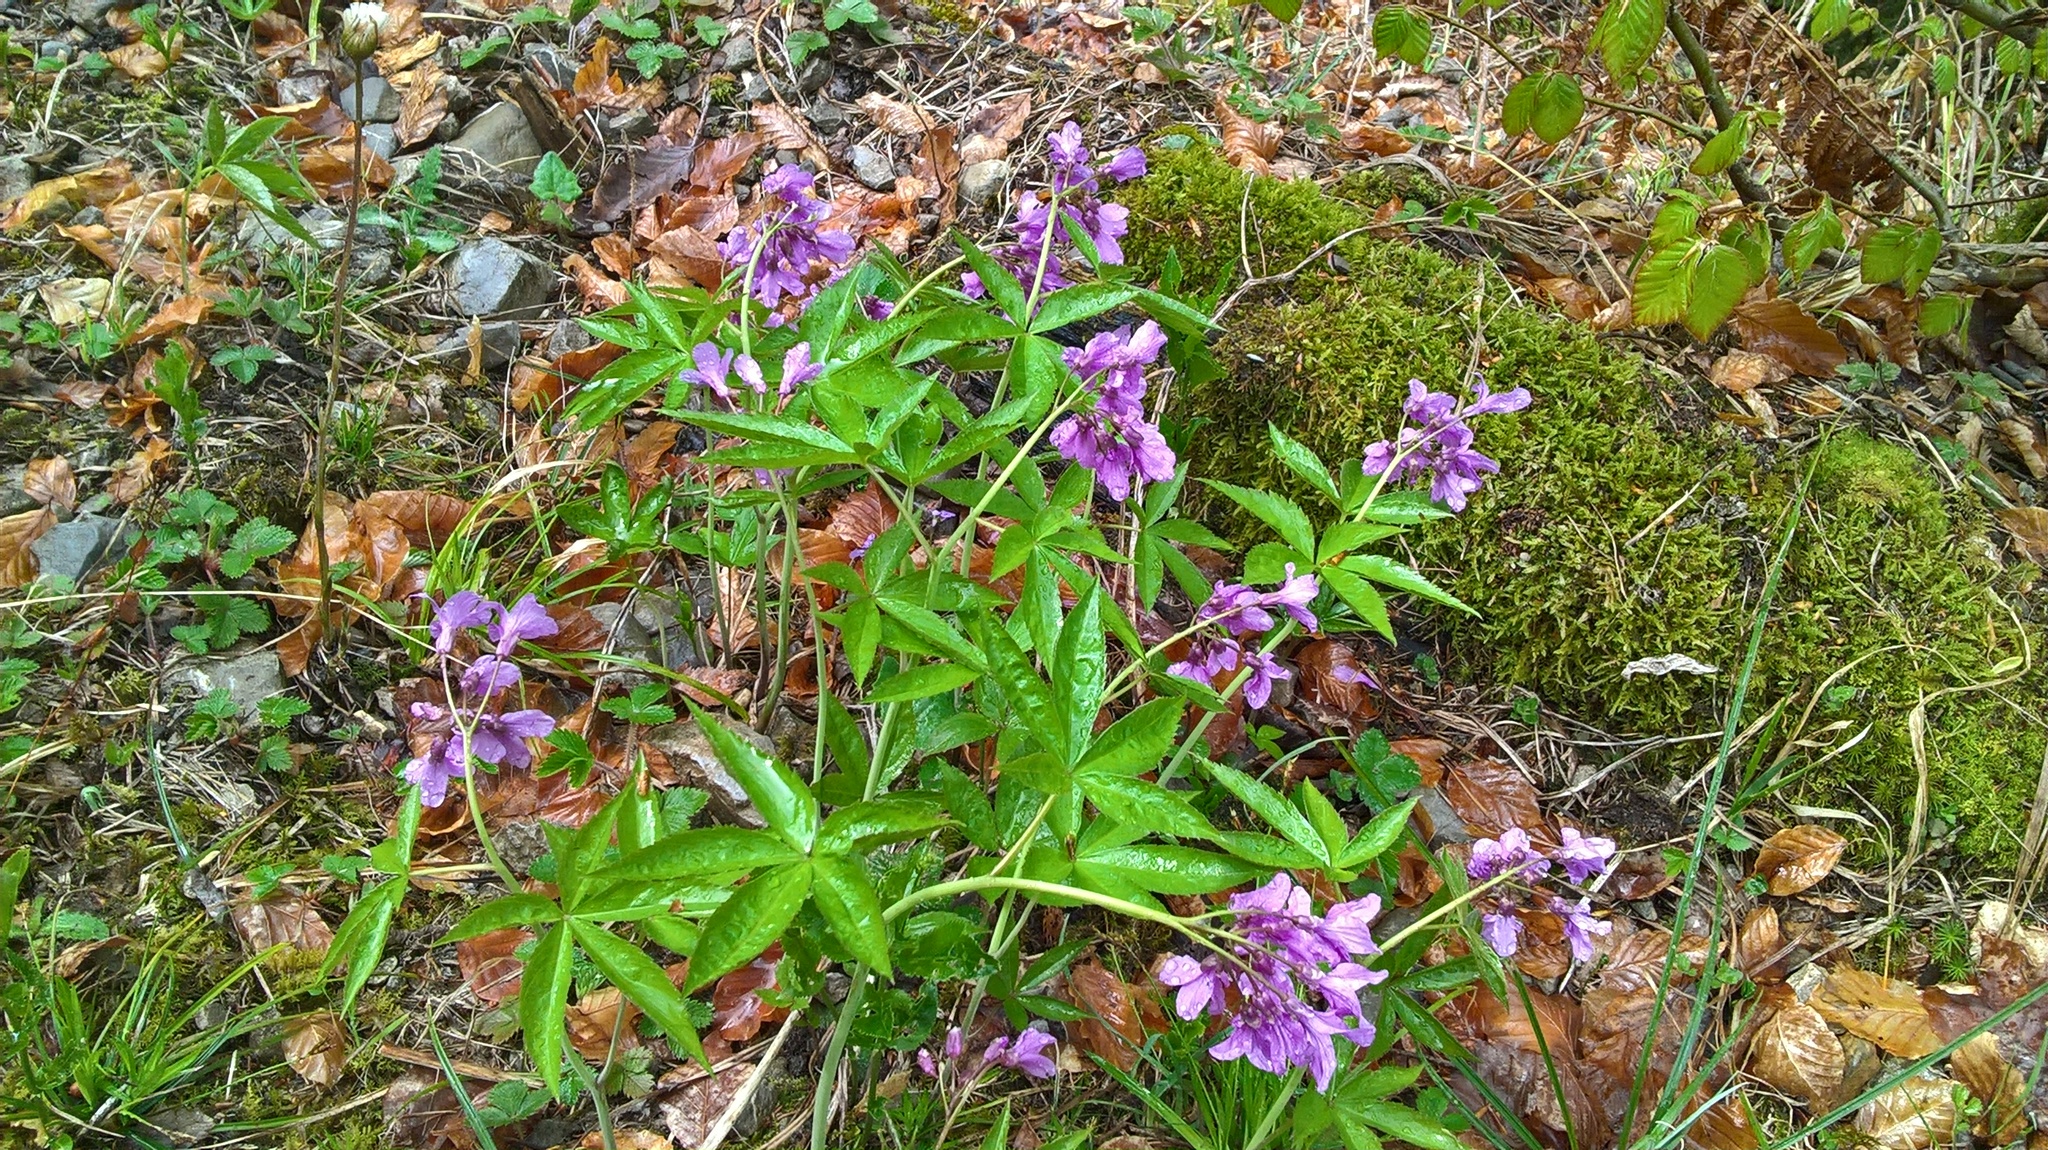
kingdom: Plantae
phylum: Tracheophyta
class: Magnoliopsida
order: Brassicales
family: Brassicaceae
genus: Cardamine
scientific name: Cardamine pentaphyllos
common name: Five-leaflet bitter-cress
